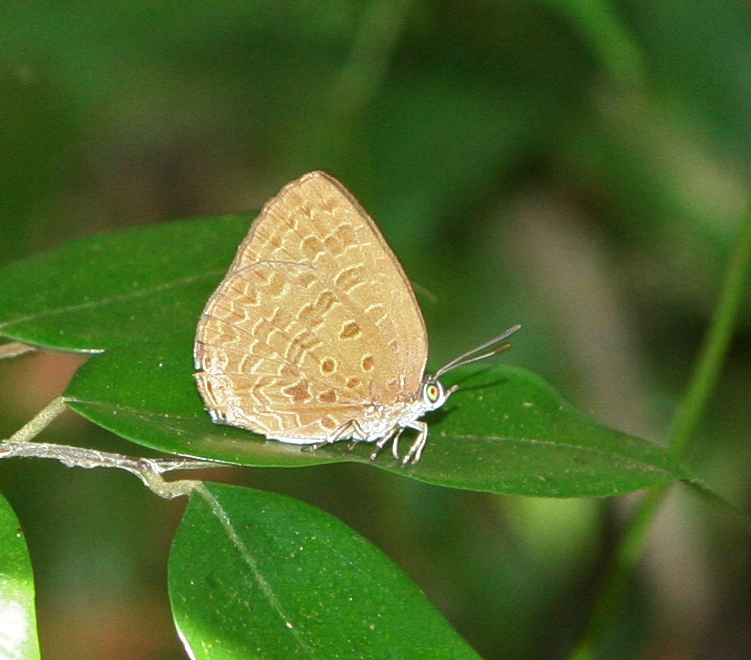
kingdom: Animalia
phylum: Arthropoda
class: Insecta
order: Lepidoptera
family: Lycaenidae
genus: Arhopala
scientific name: Arhopala elopura
